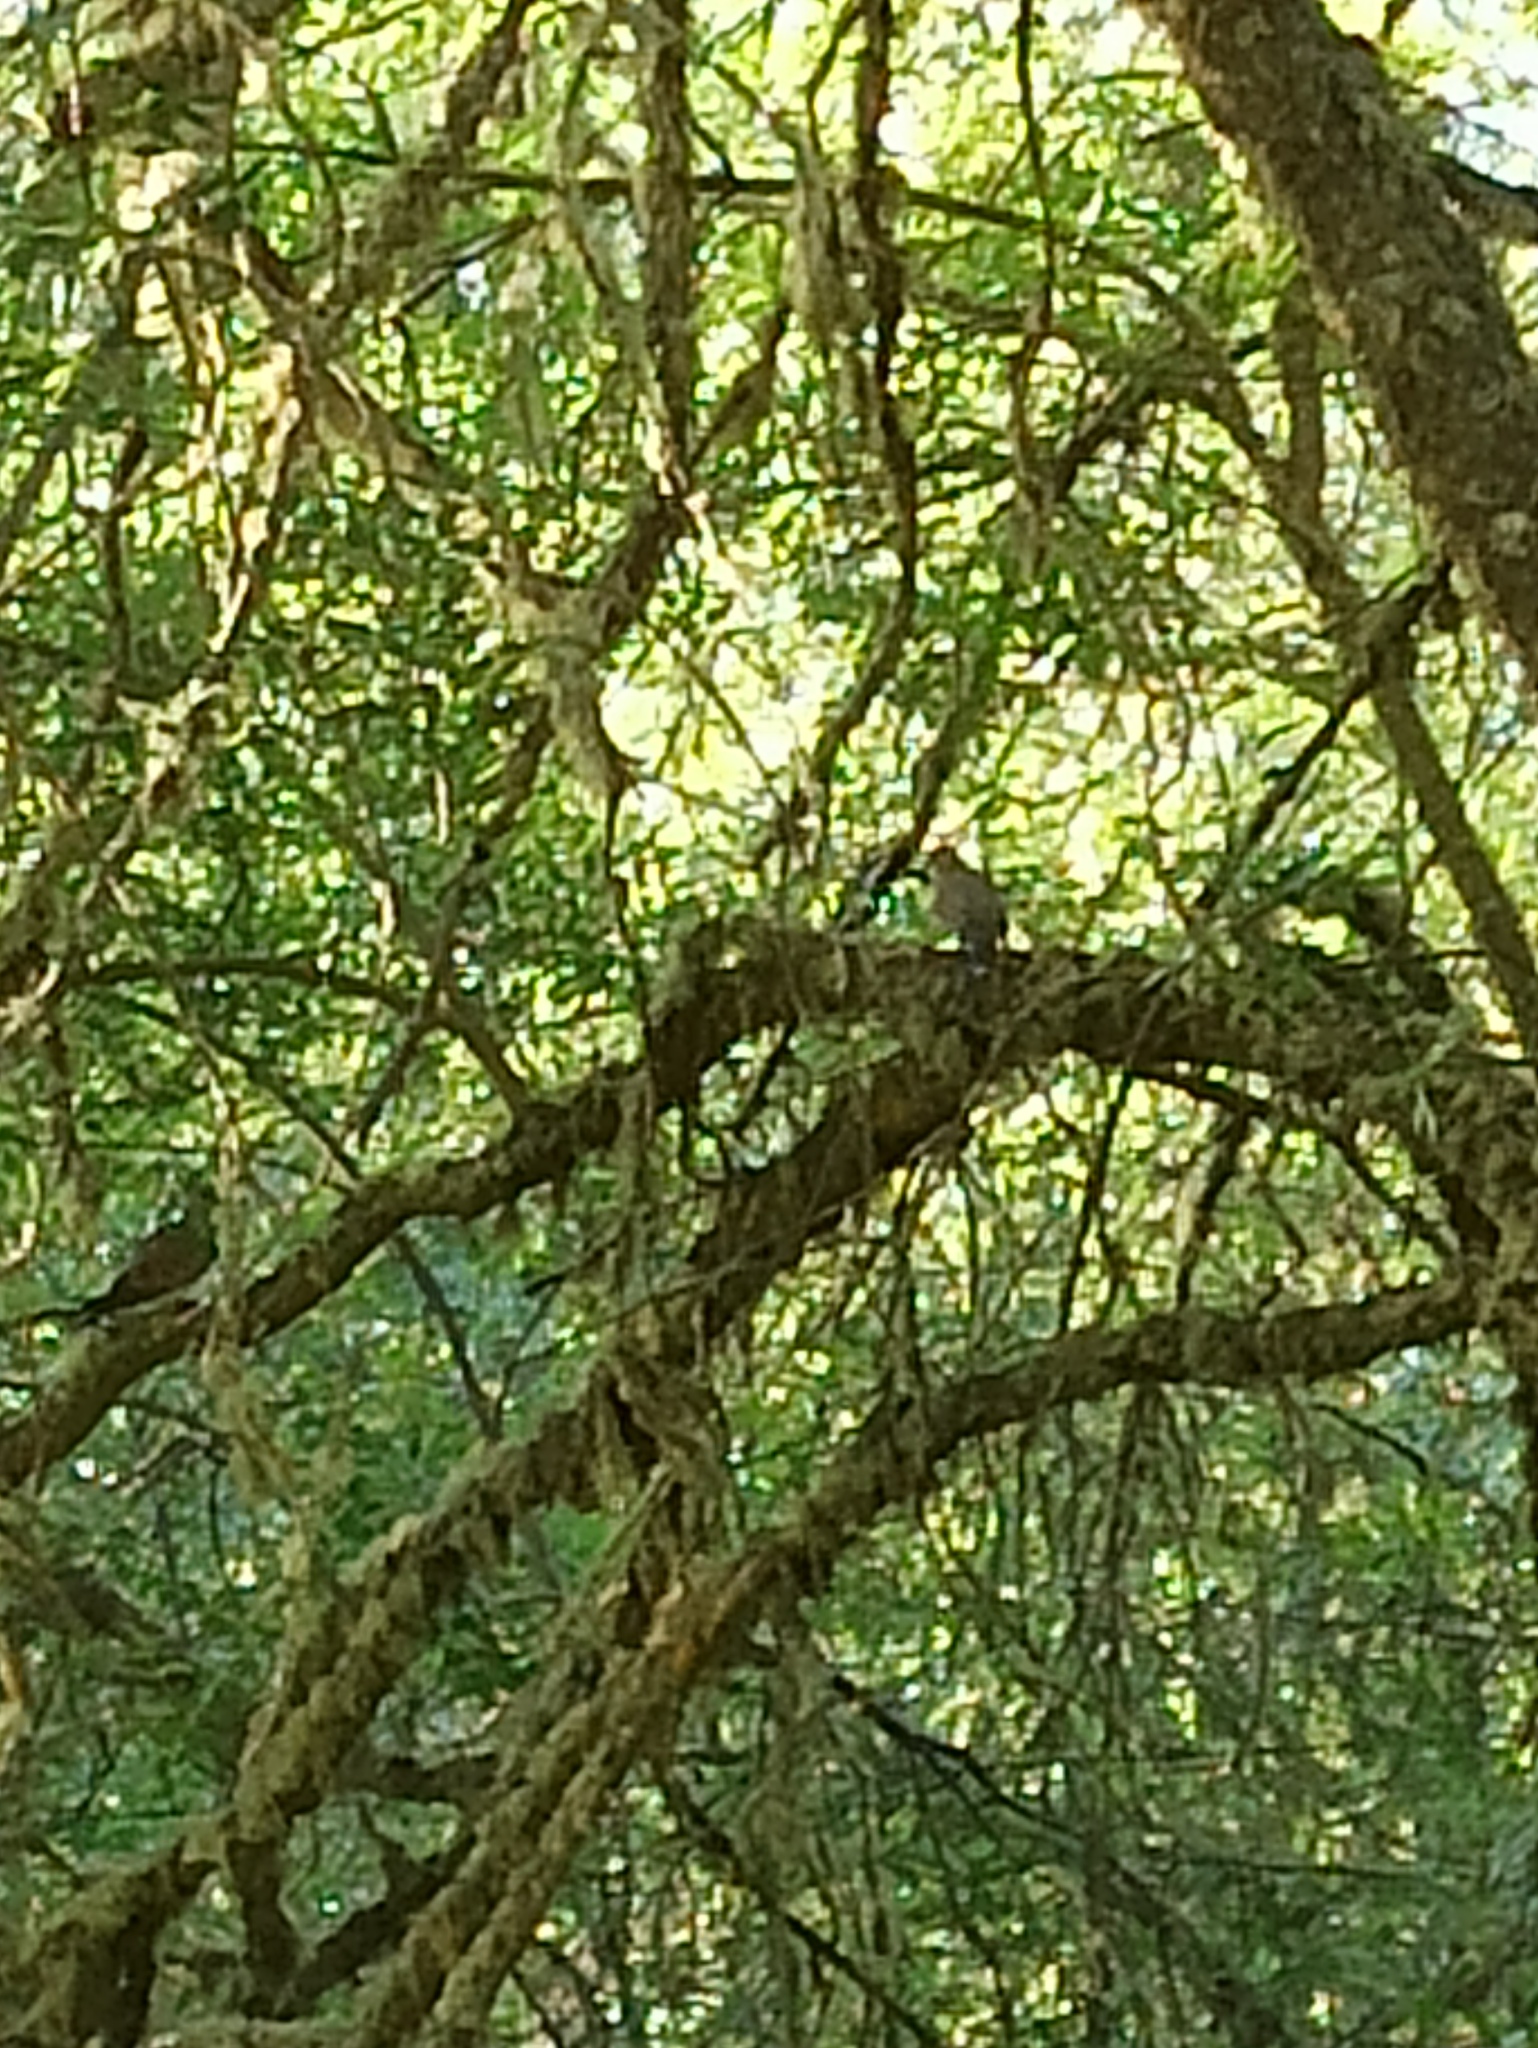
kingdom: Animalia
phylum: Chordata
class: Aves
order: Columbiformes
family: Columbidae
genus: Streptopelia
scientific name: Streptopelia turtur
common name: European turtle dove
